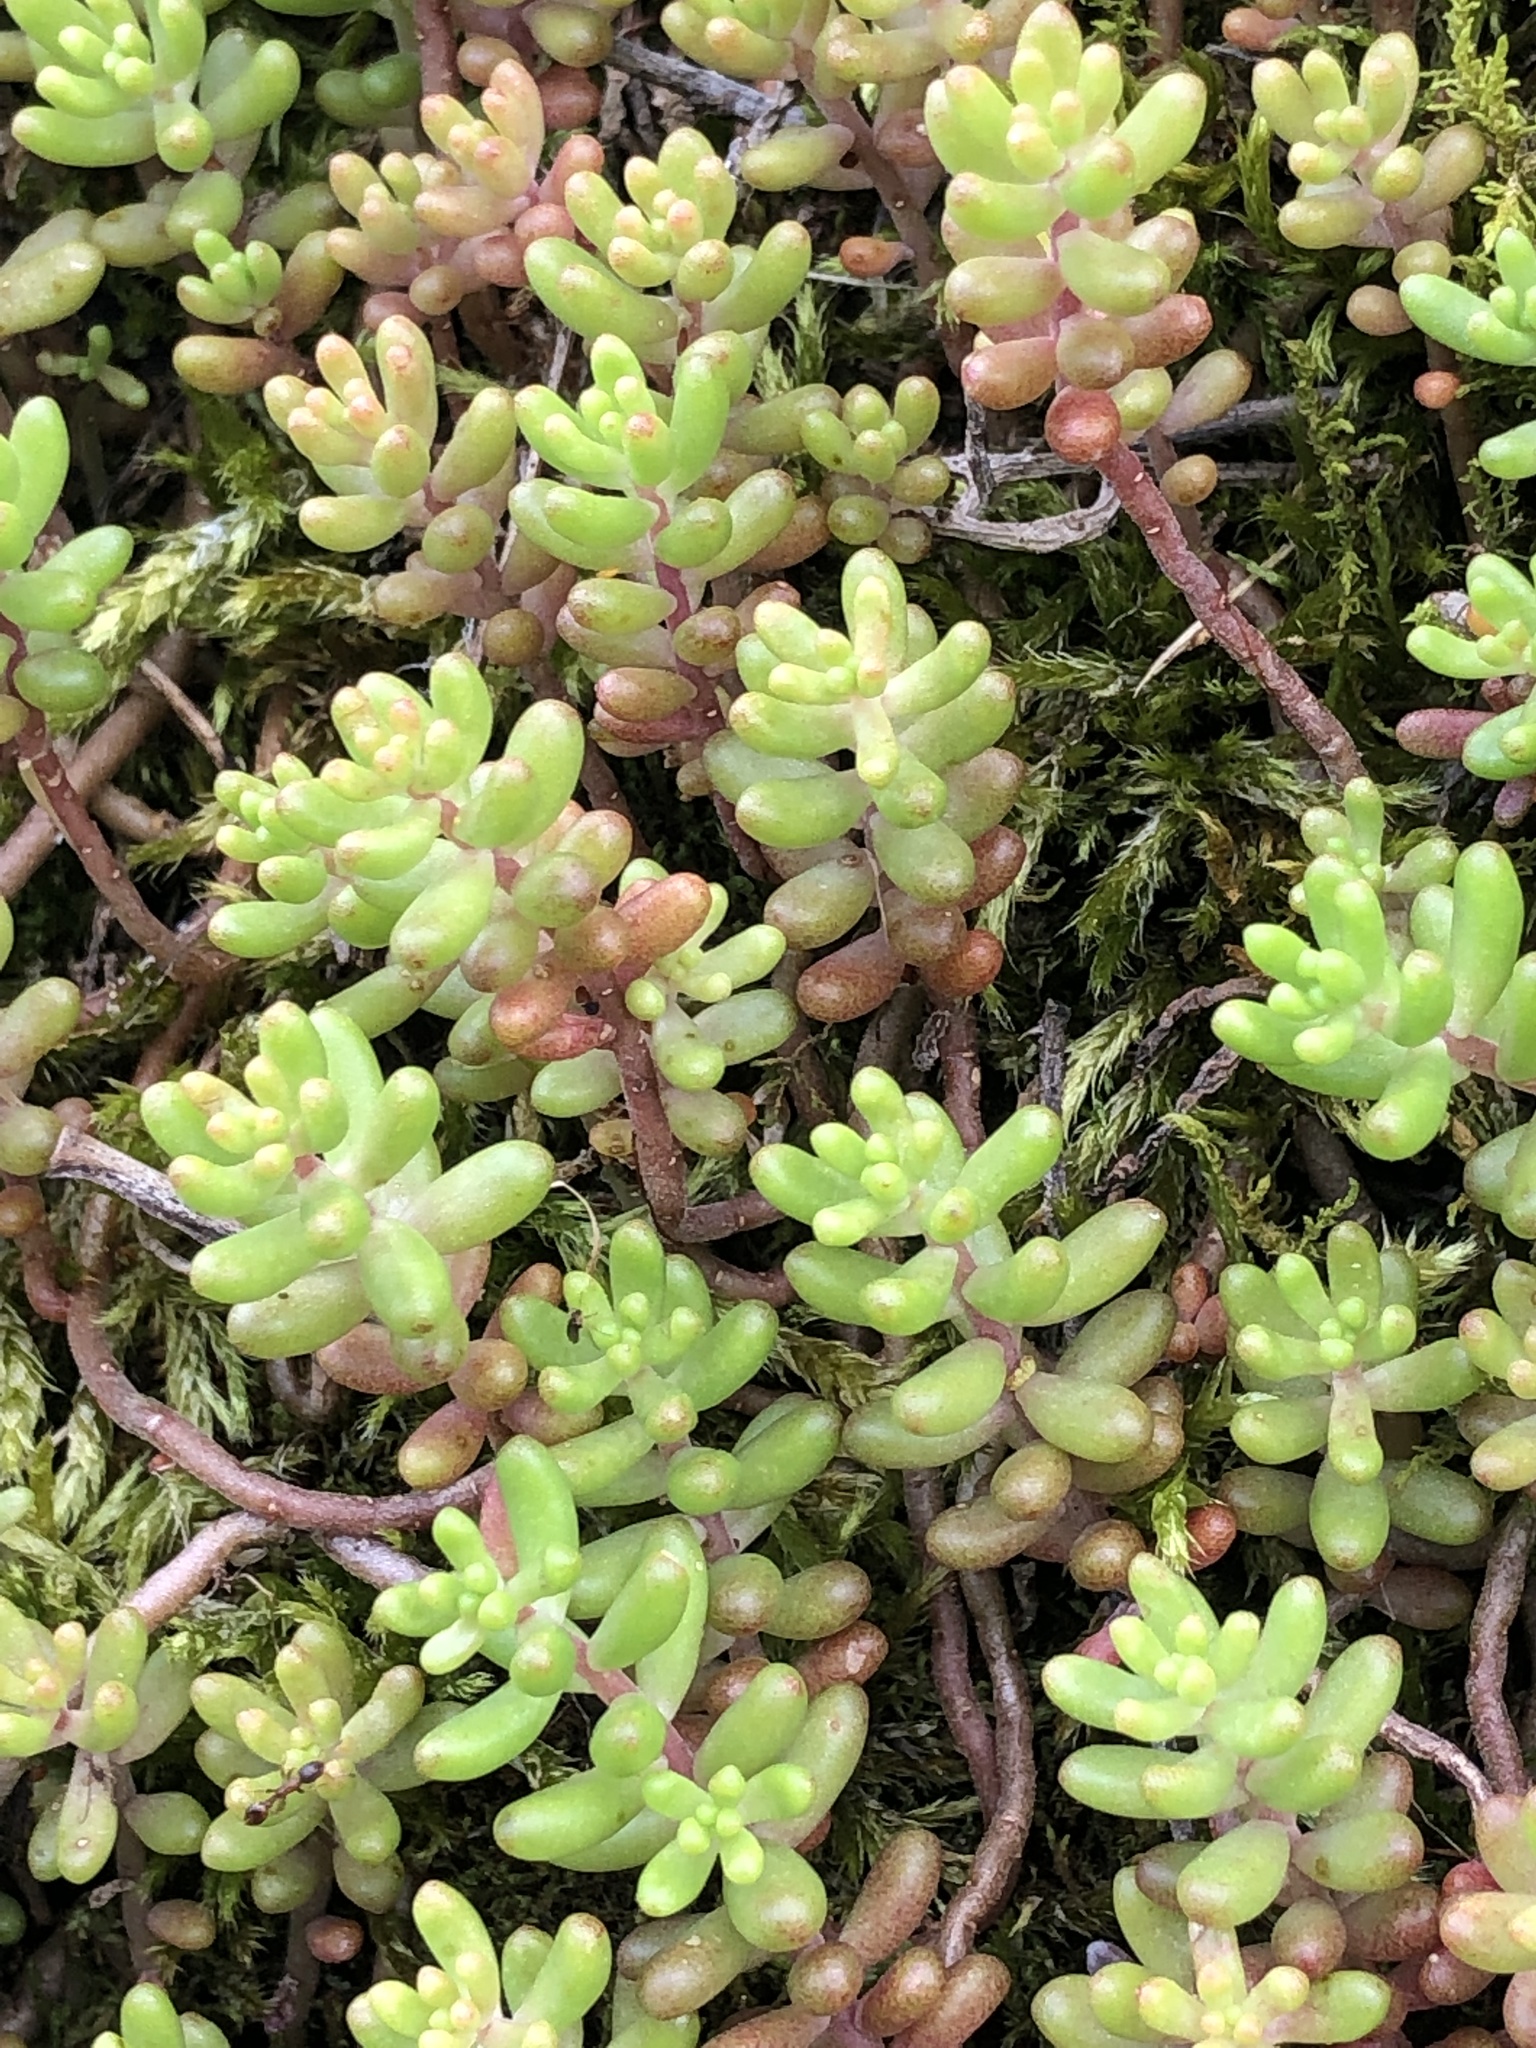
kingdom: Plantae
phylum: Tracheophyta
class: Magnoliopsida
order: Saxifragales
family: Crassulaceae
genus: Sedum
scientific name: Sedum album
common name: White stonecrop
